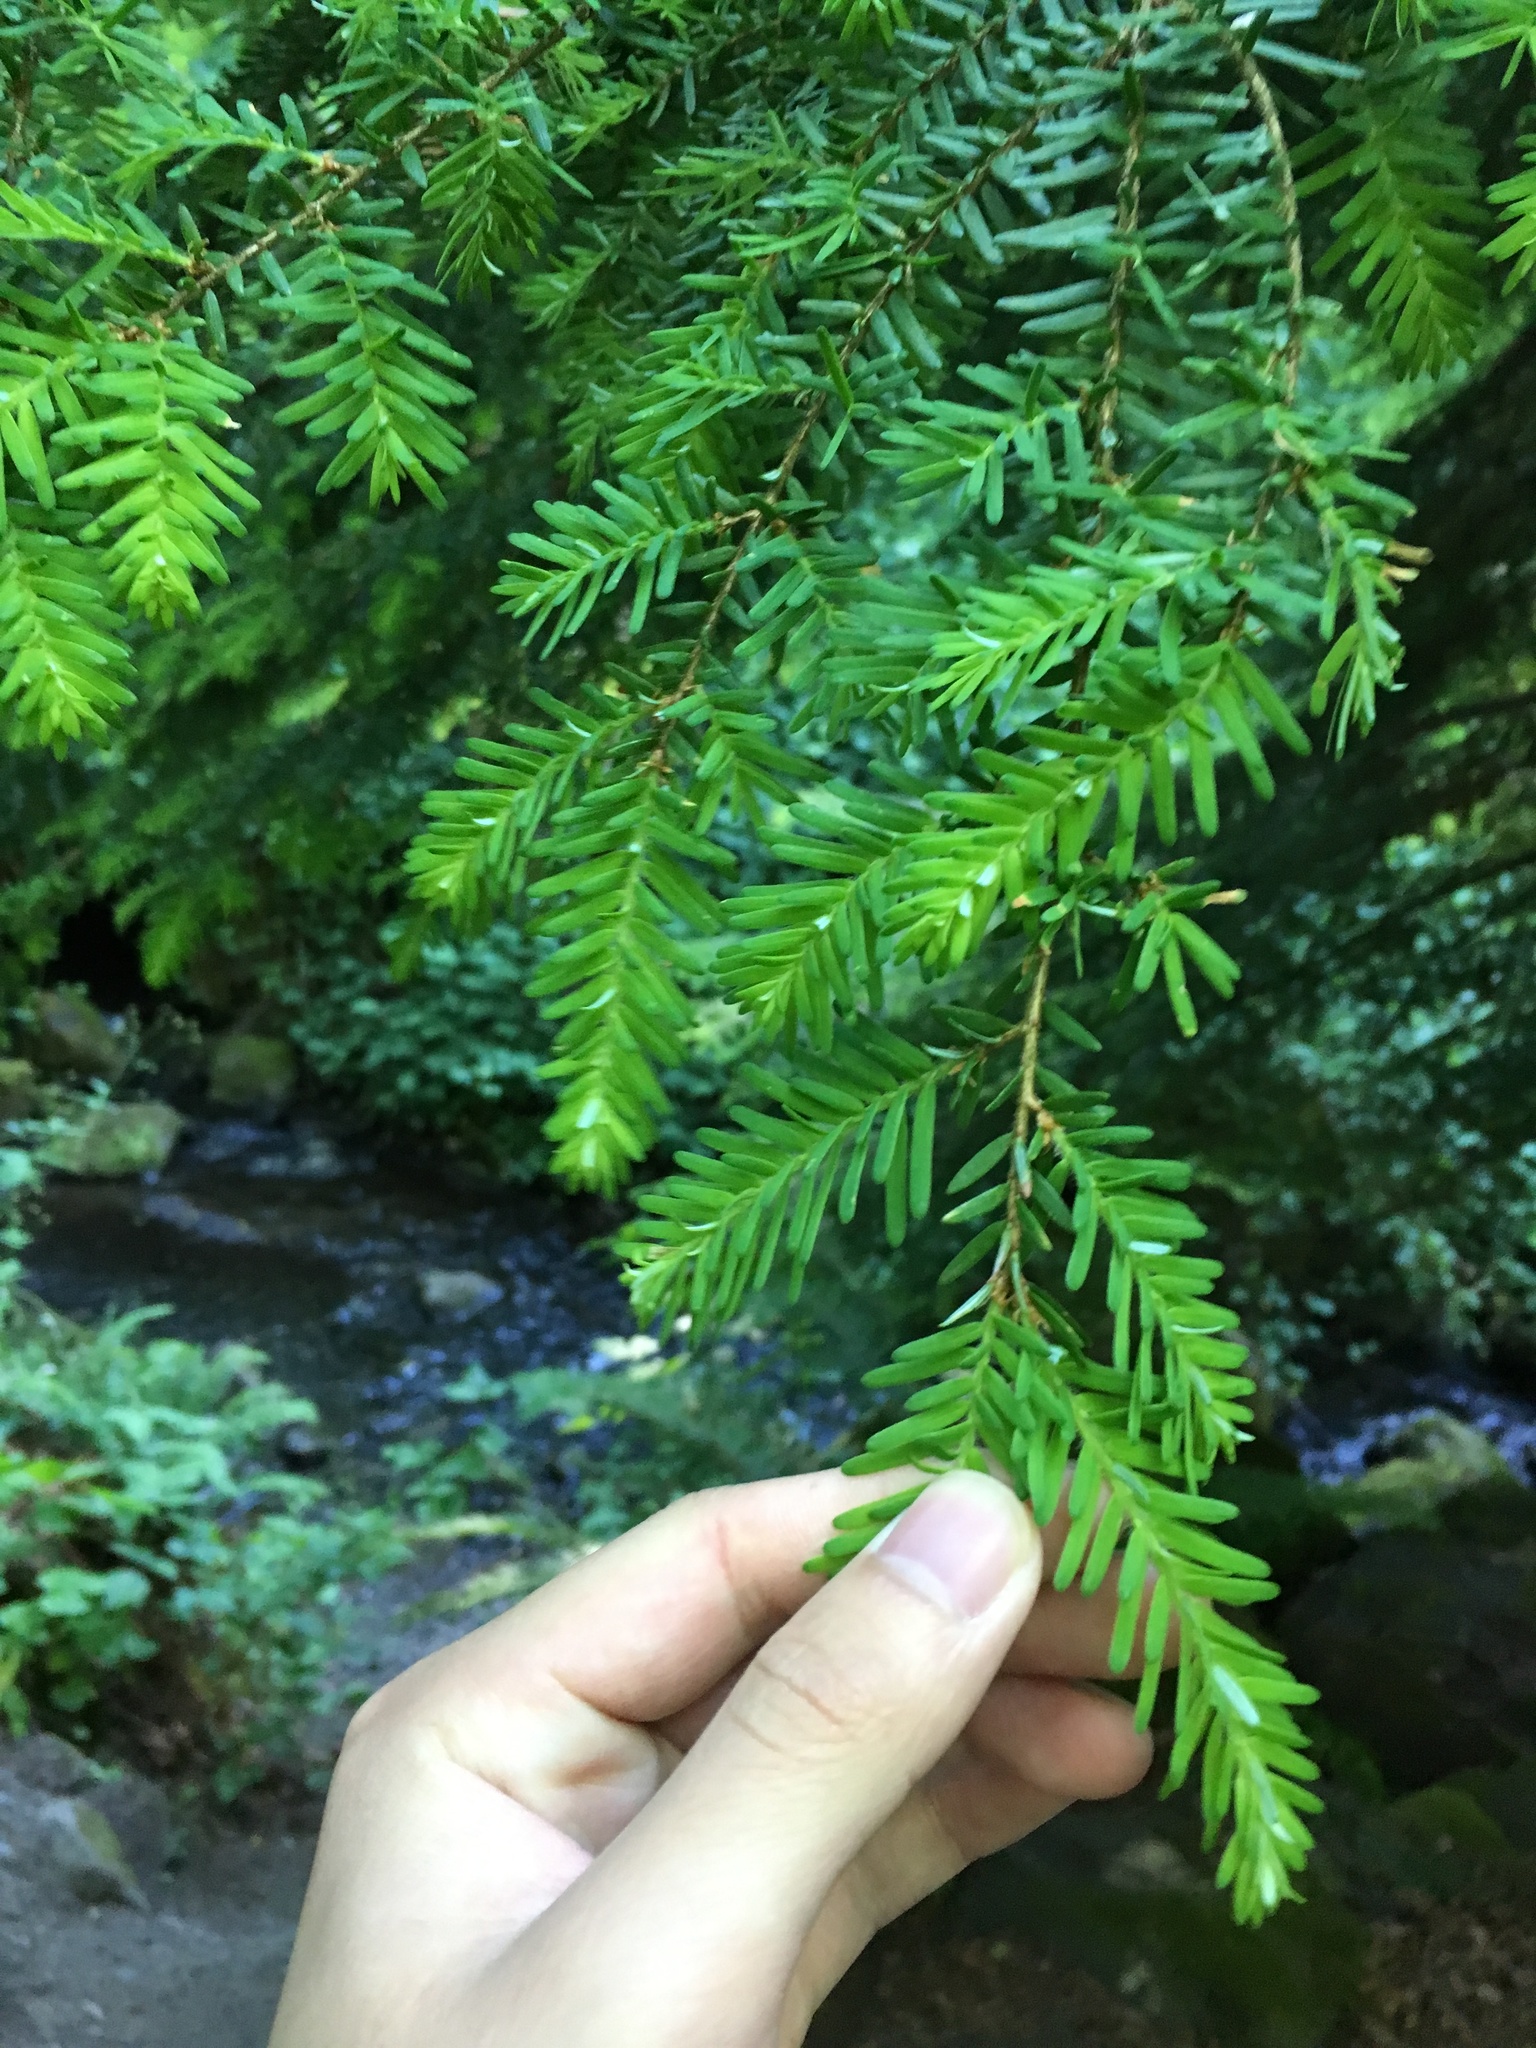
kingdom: Plantae
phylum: Tracheophyta
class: Pinopsida
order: Pinales
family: Pinaceae
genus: Tsuga
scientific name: Tsuga heterophylla
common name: Western hemlock
